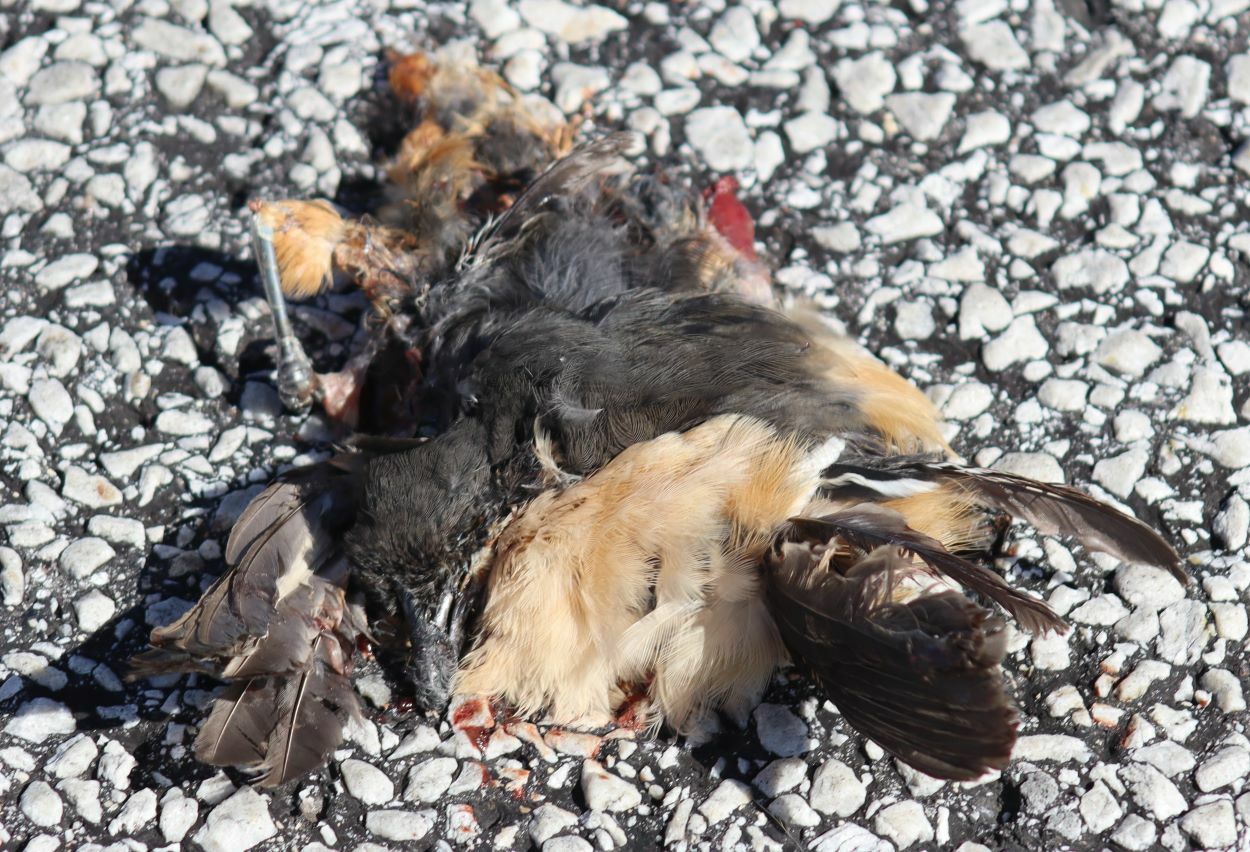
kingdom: Animalia
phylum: Chordata
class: Aves
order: Passeriformes
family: Malaconotidae
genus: Laniarius
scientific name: Laniarius ferrugineus
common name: Southern boubou
